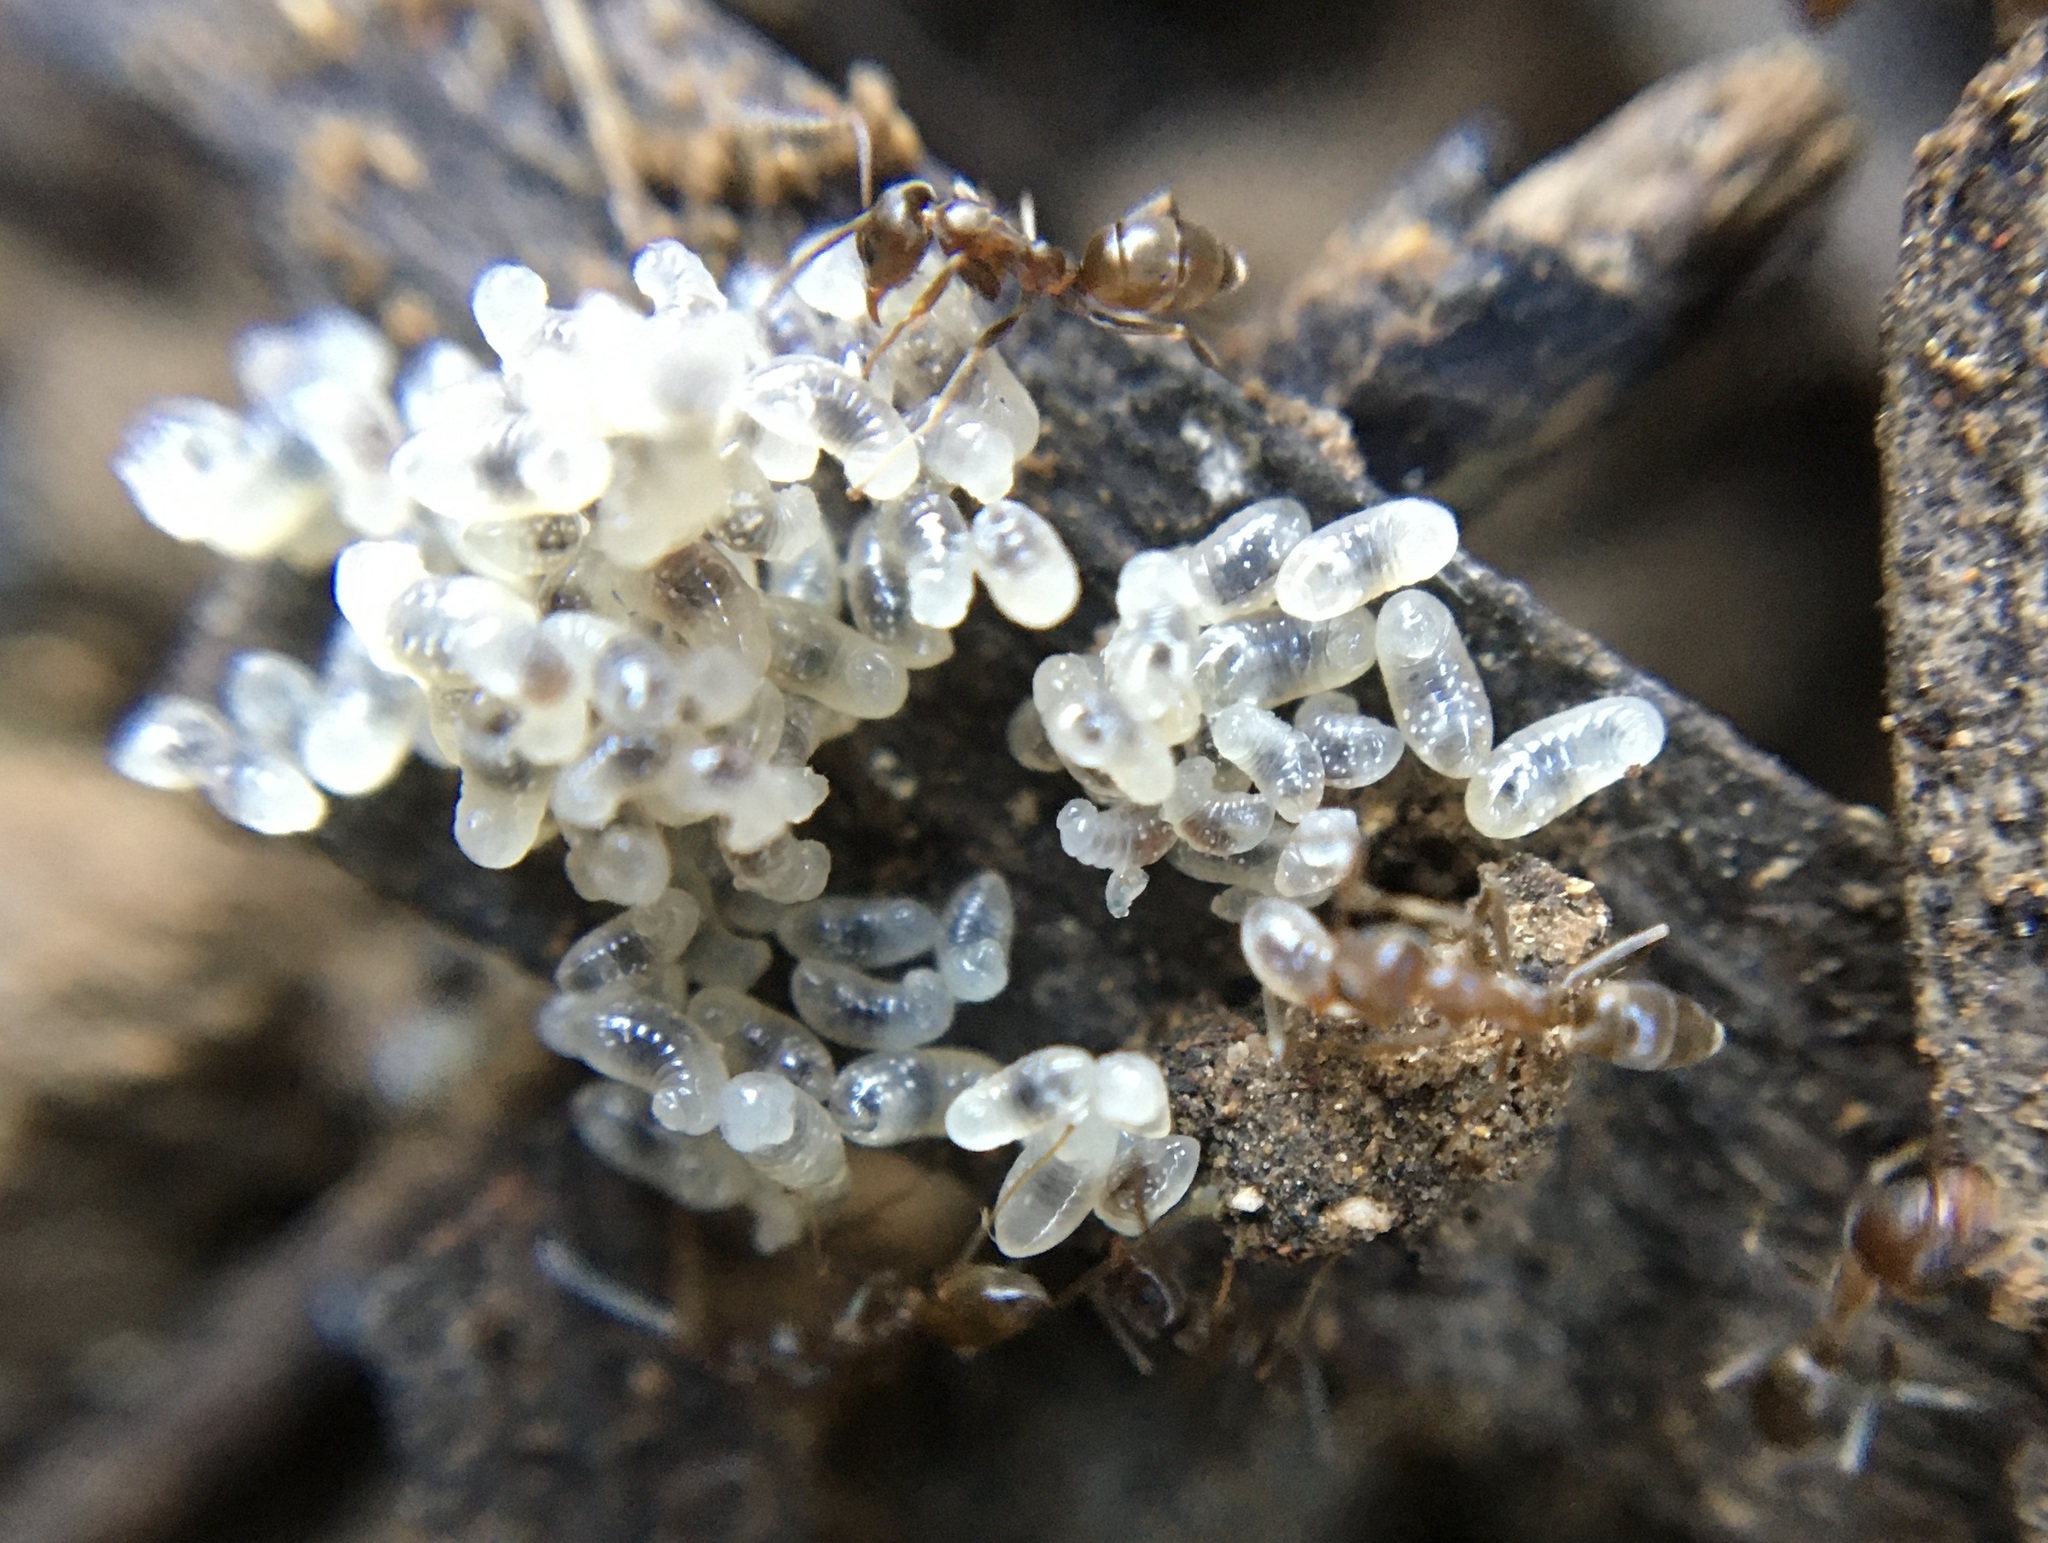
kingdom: Animalia
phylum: Arthropoda
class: Insecta
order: Hymenoptera
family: Formicidae
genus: Linepithema
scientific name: Linepithema humile
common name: Argentine ant
